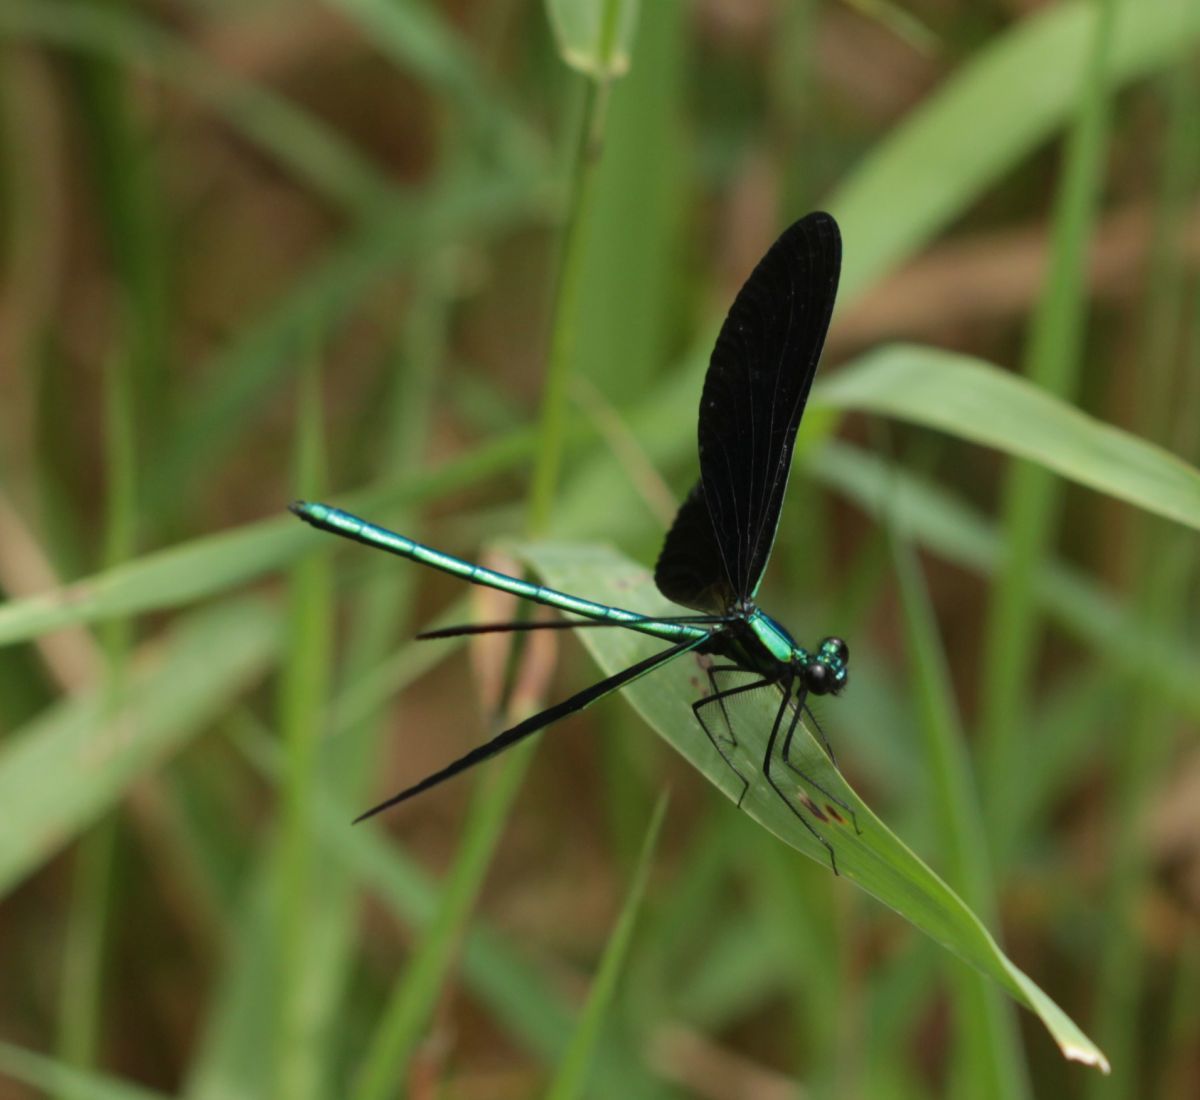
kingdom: Animalia
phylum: Arthropoda
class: Insecta
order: Odonata
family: Calopterygidae
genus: Calopteryx
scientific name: Calopteryx maculata
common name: Ebony jewelwing
